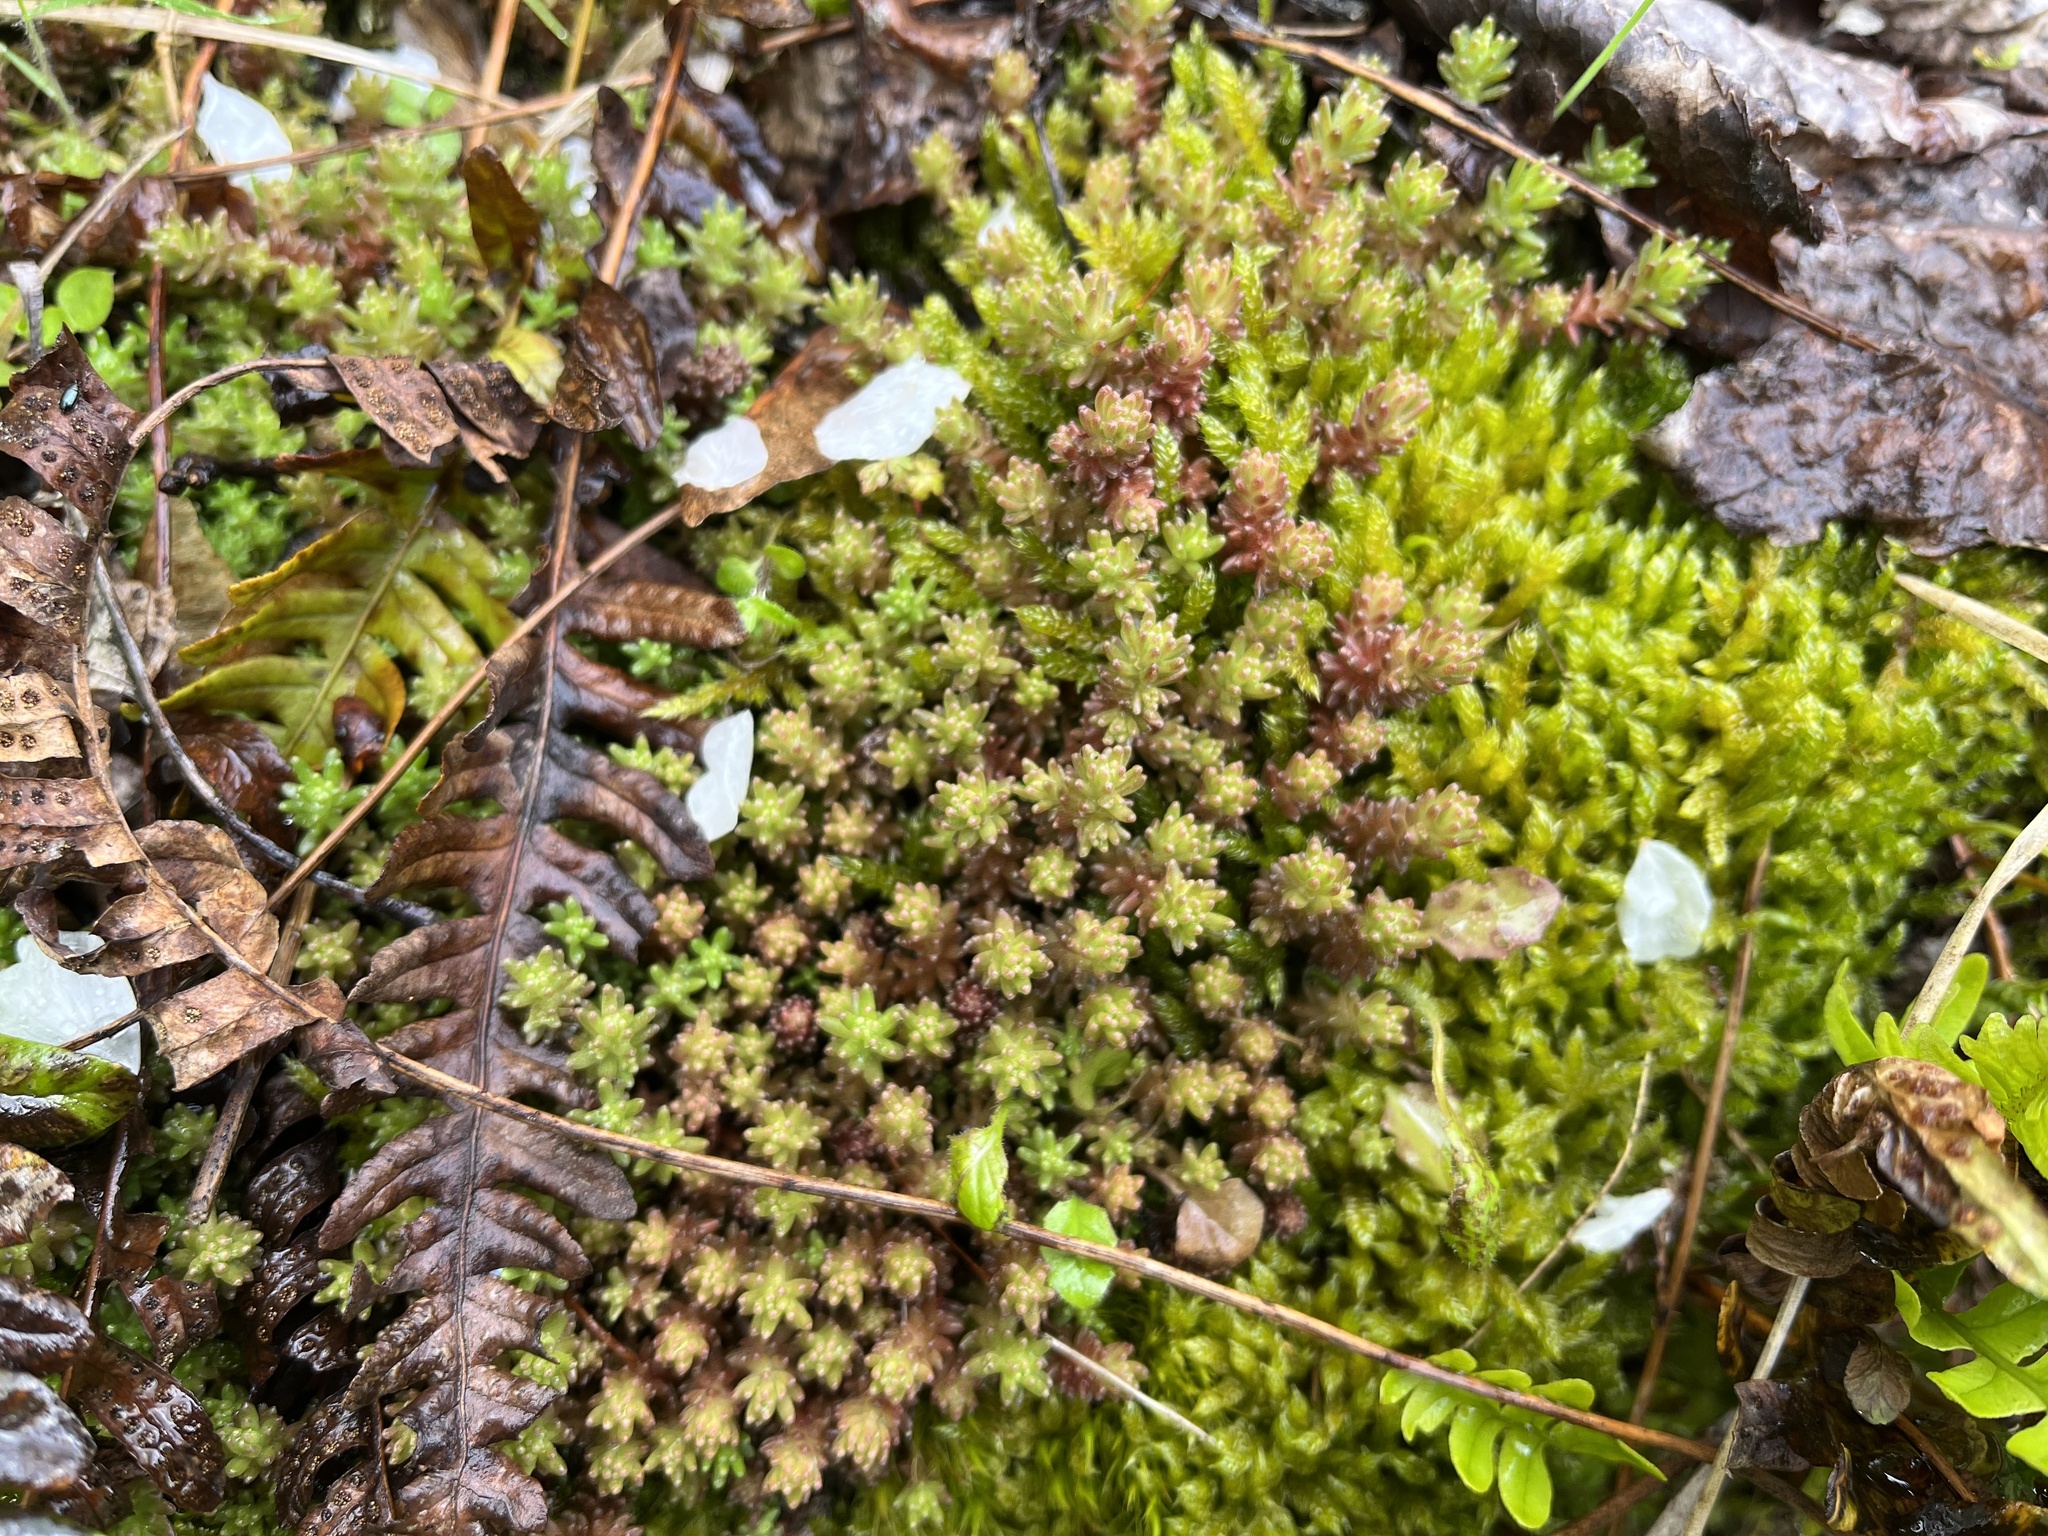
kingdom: Plantae
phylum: Tracheophyta
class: Magnoliopsida
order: Saxifragales
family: Crassulaceae
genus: Sedum
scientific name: Sedum sexangulare
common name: Tasteless stonecrop
